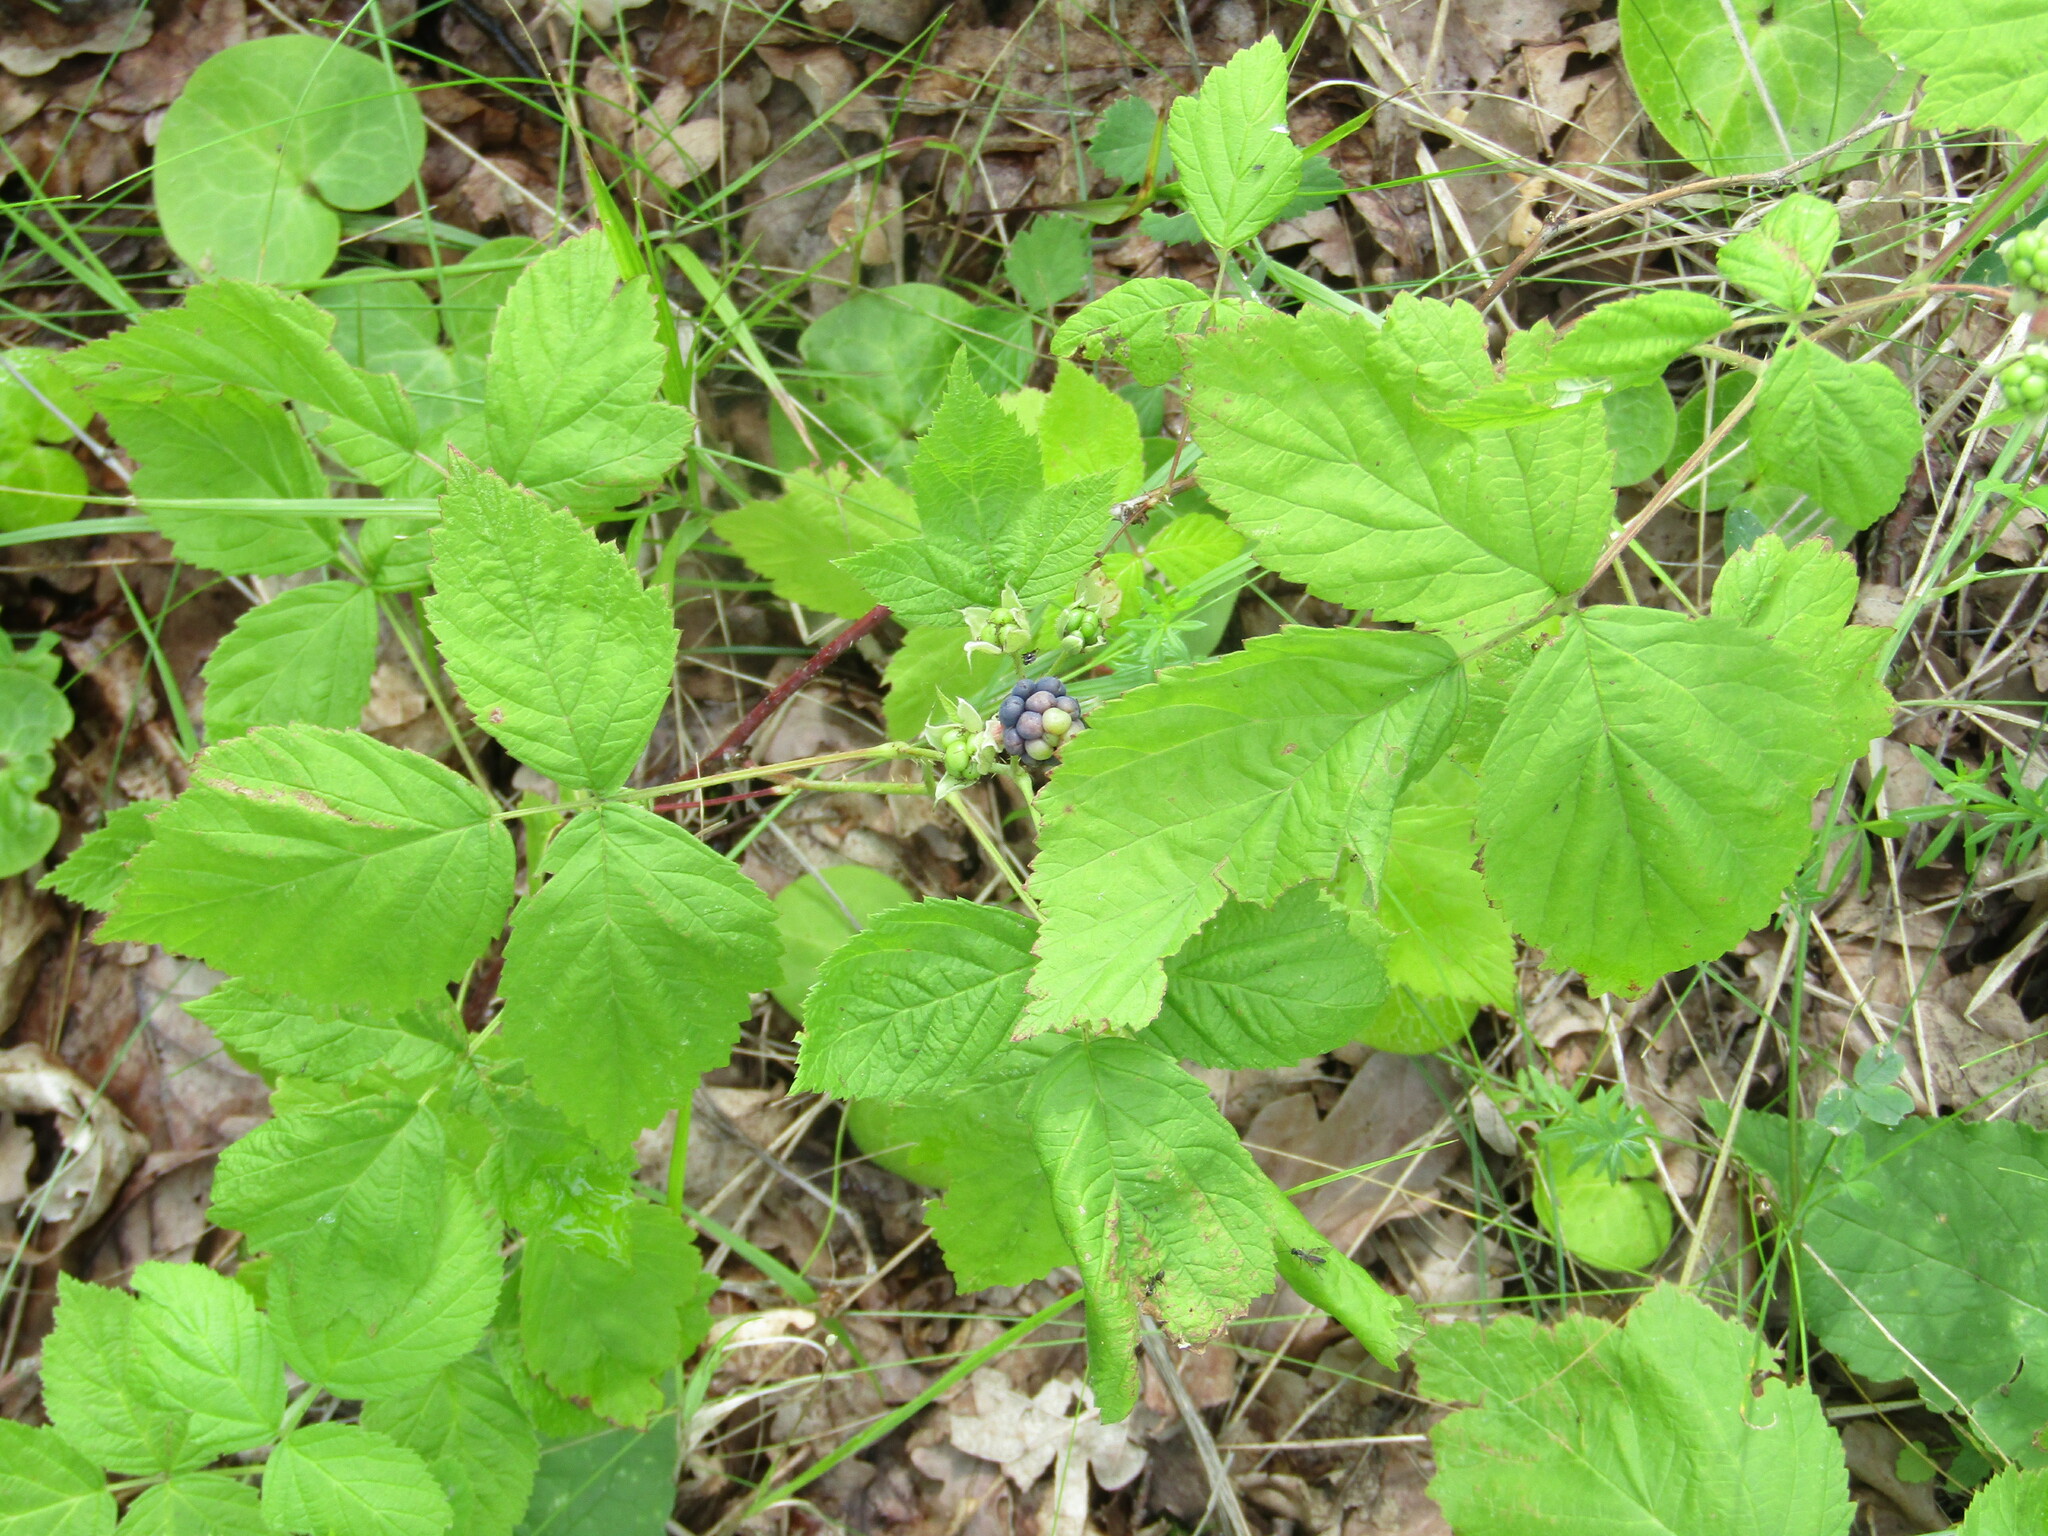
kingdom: Plantae
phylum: Tracheophyta
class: Magnoliopsida
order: Rosales
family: Rosaceae
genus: Rubus
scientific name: Rubus caesius
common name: Dewberry
